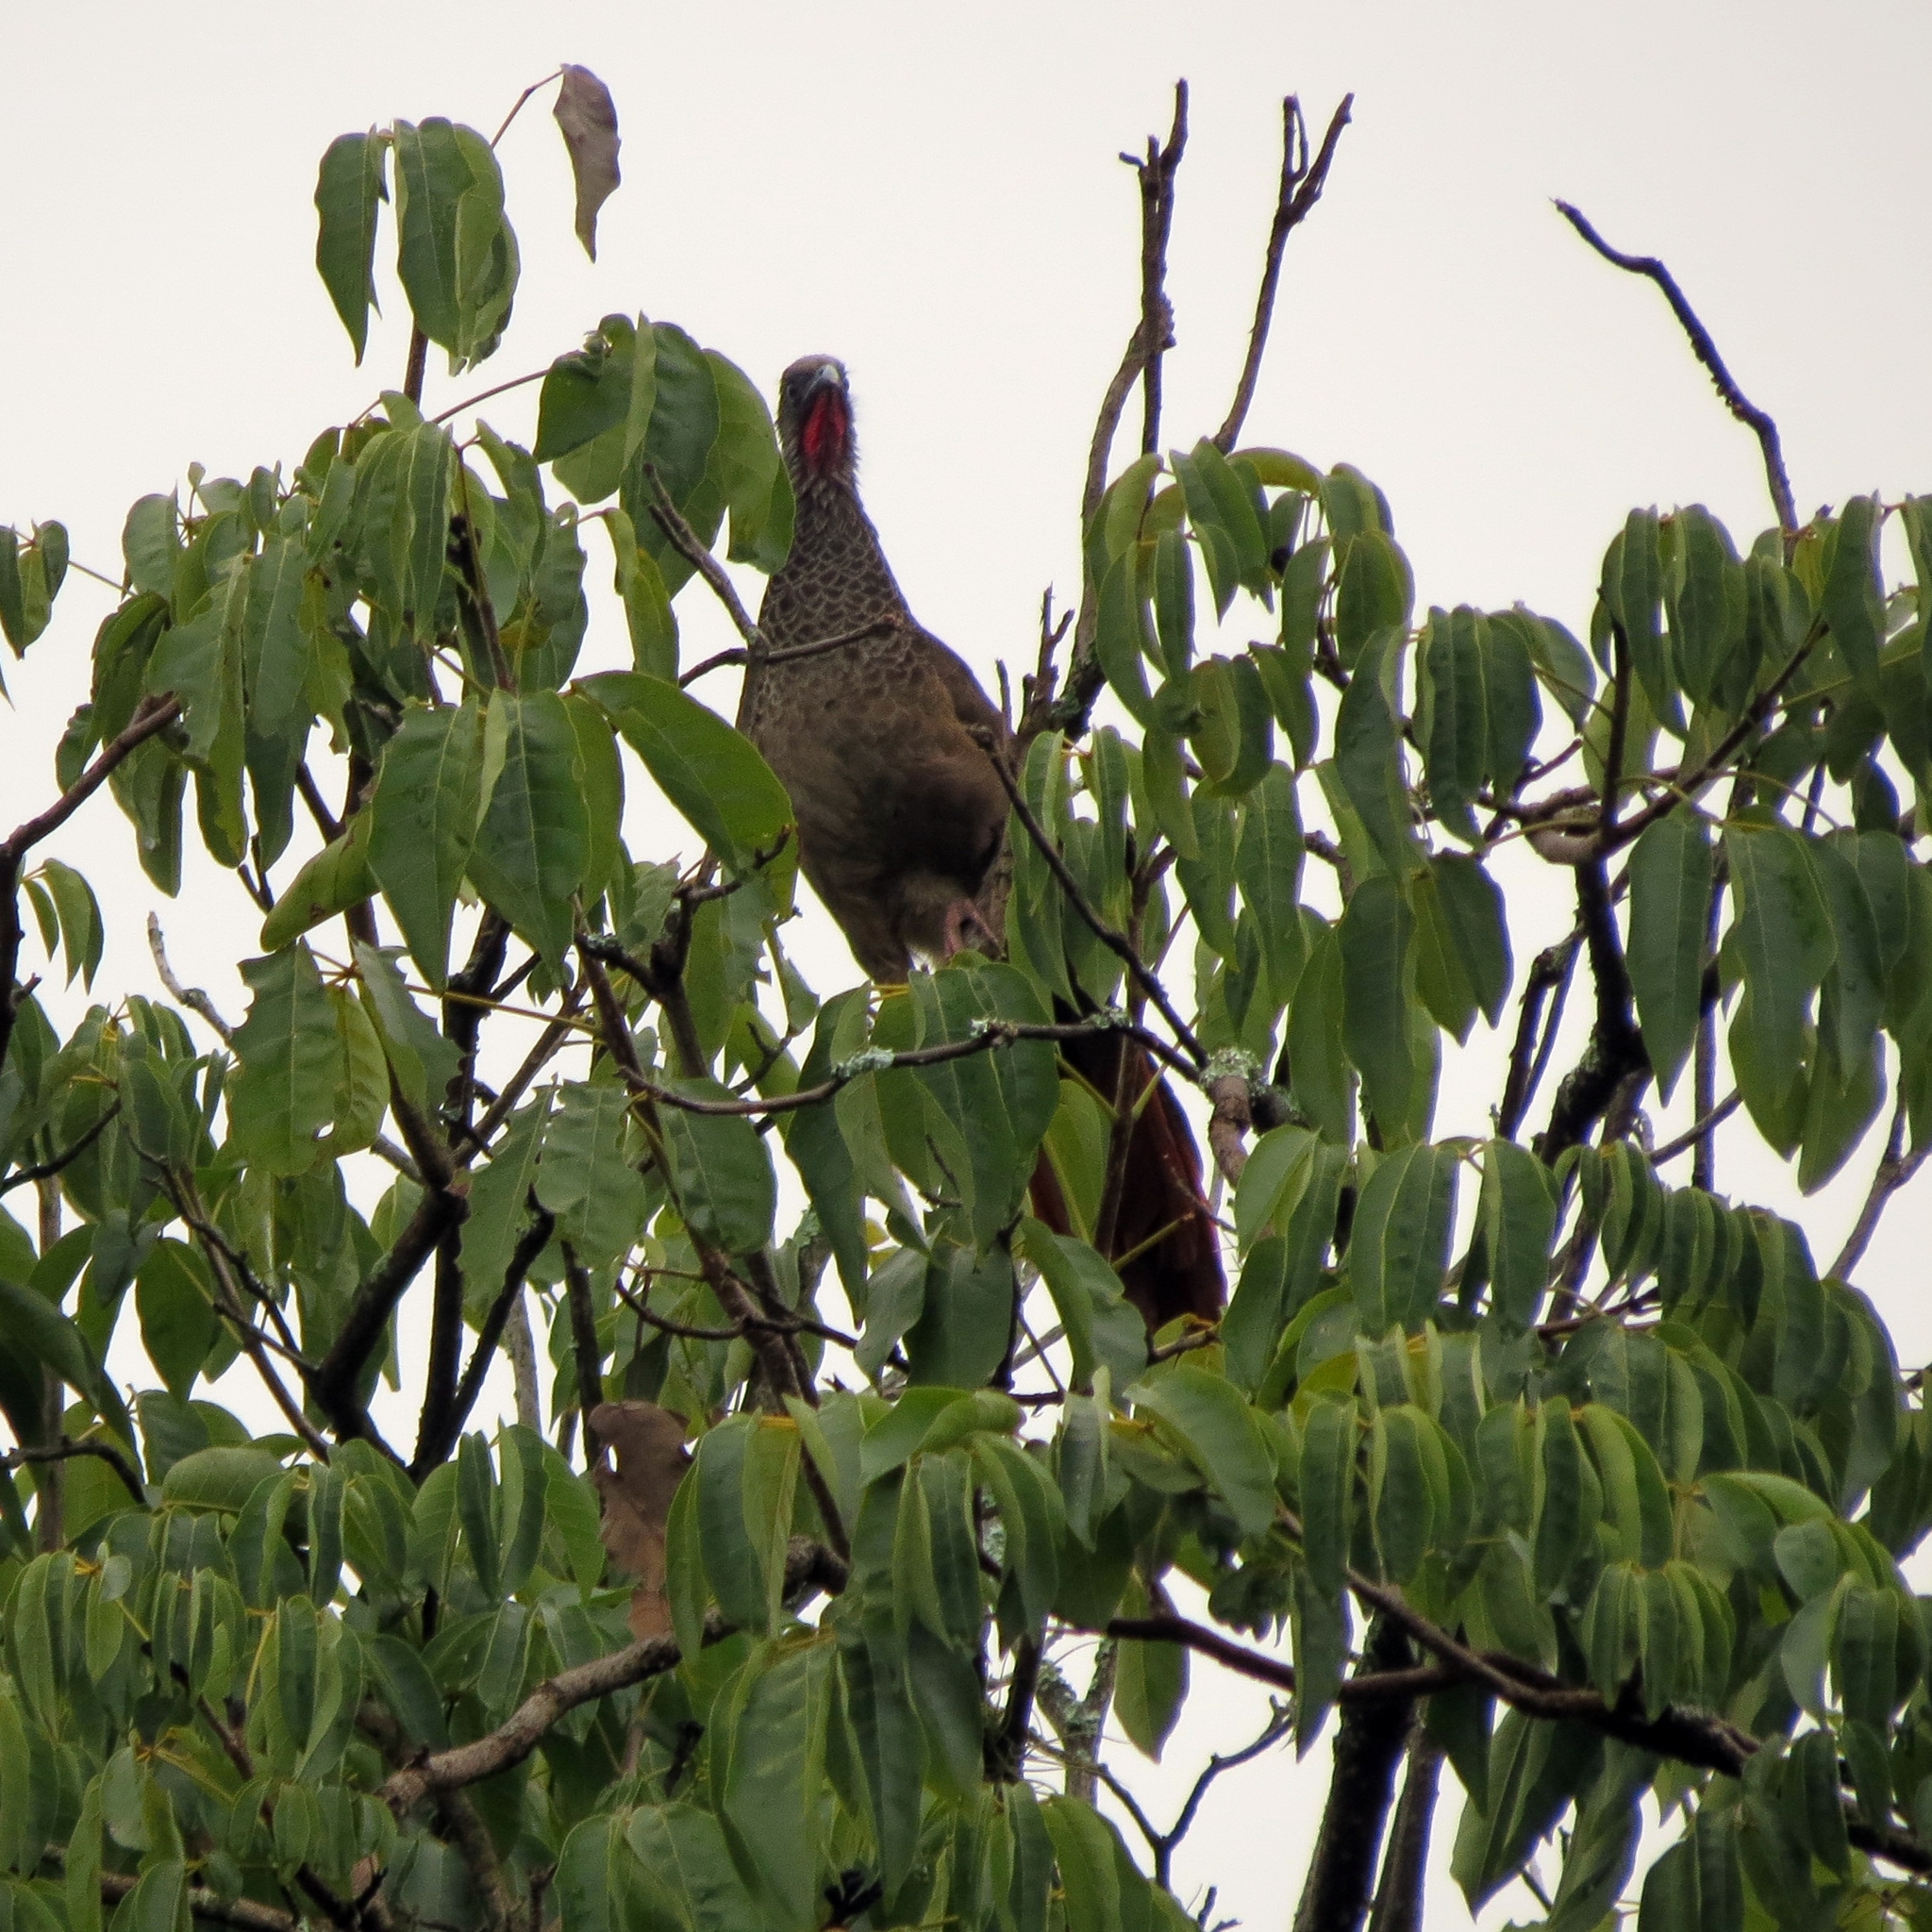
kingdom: Animalia
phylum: Chordata
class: Aves
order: Galliformes
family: Cracidae
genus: Ortalis
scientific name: Ortalis columbiana
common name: Colombian chachalaca
